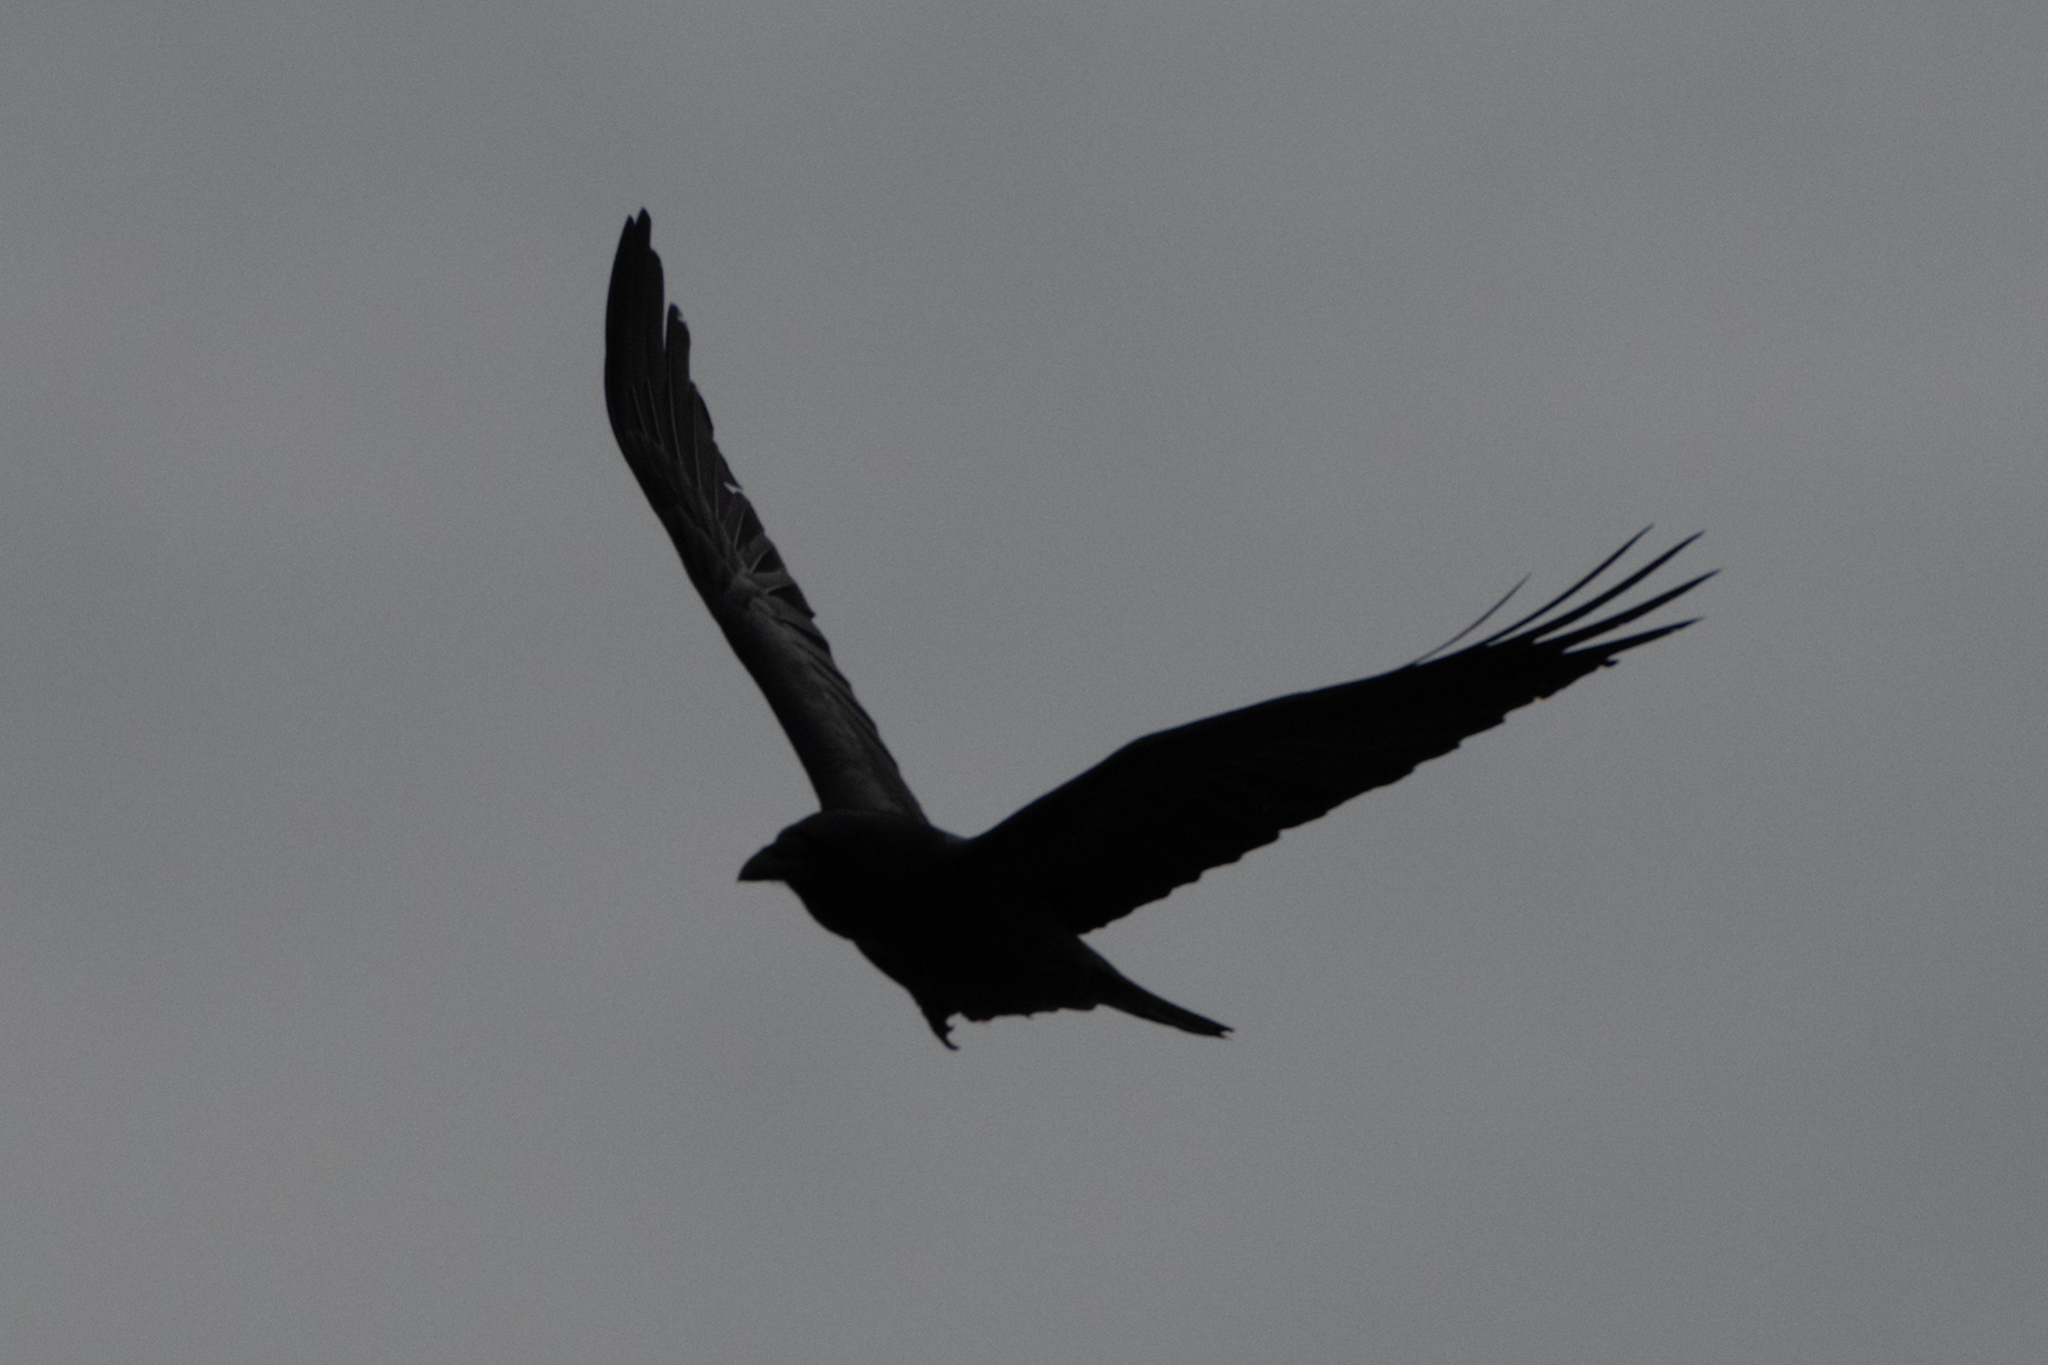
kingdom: Animalia
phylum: Chordata
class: Aves
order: Passeriformes
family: Corvidae
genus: Corvus
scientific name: Corvus corax
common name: Common raven
